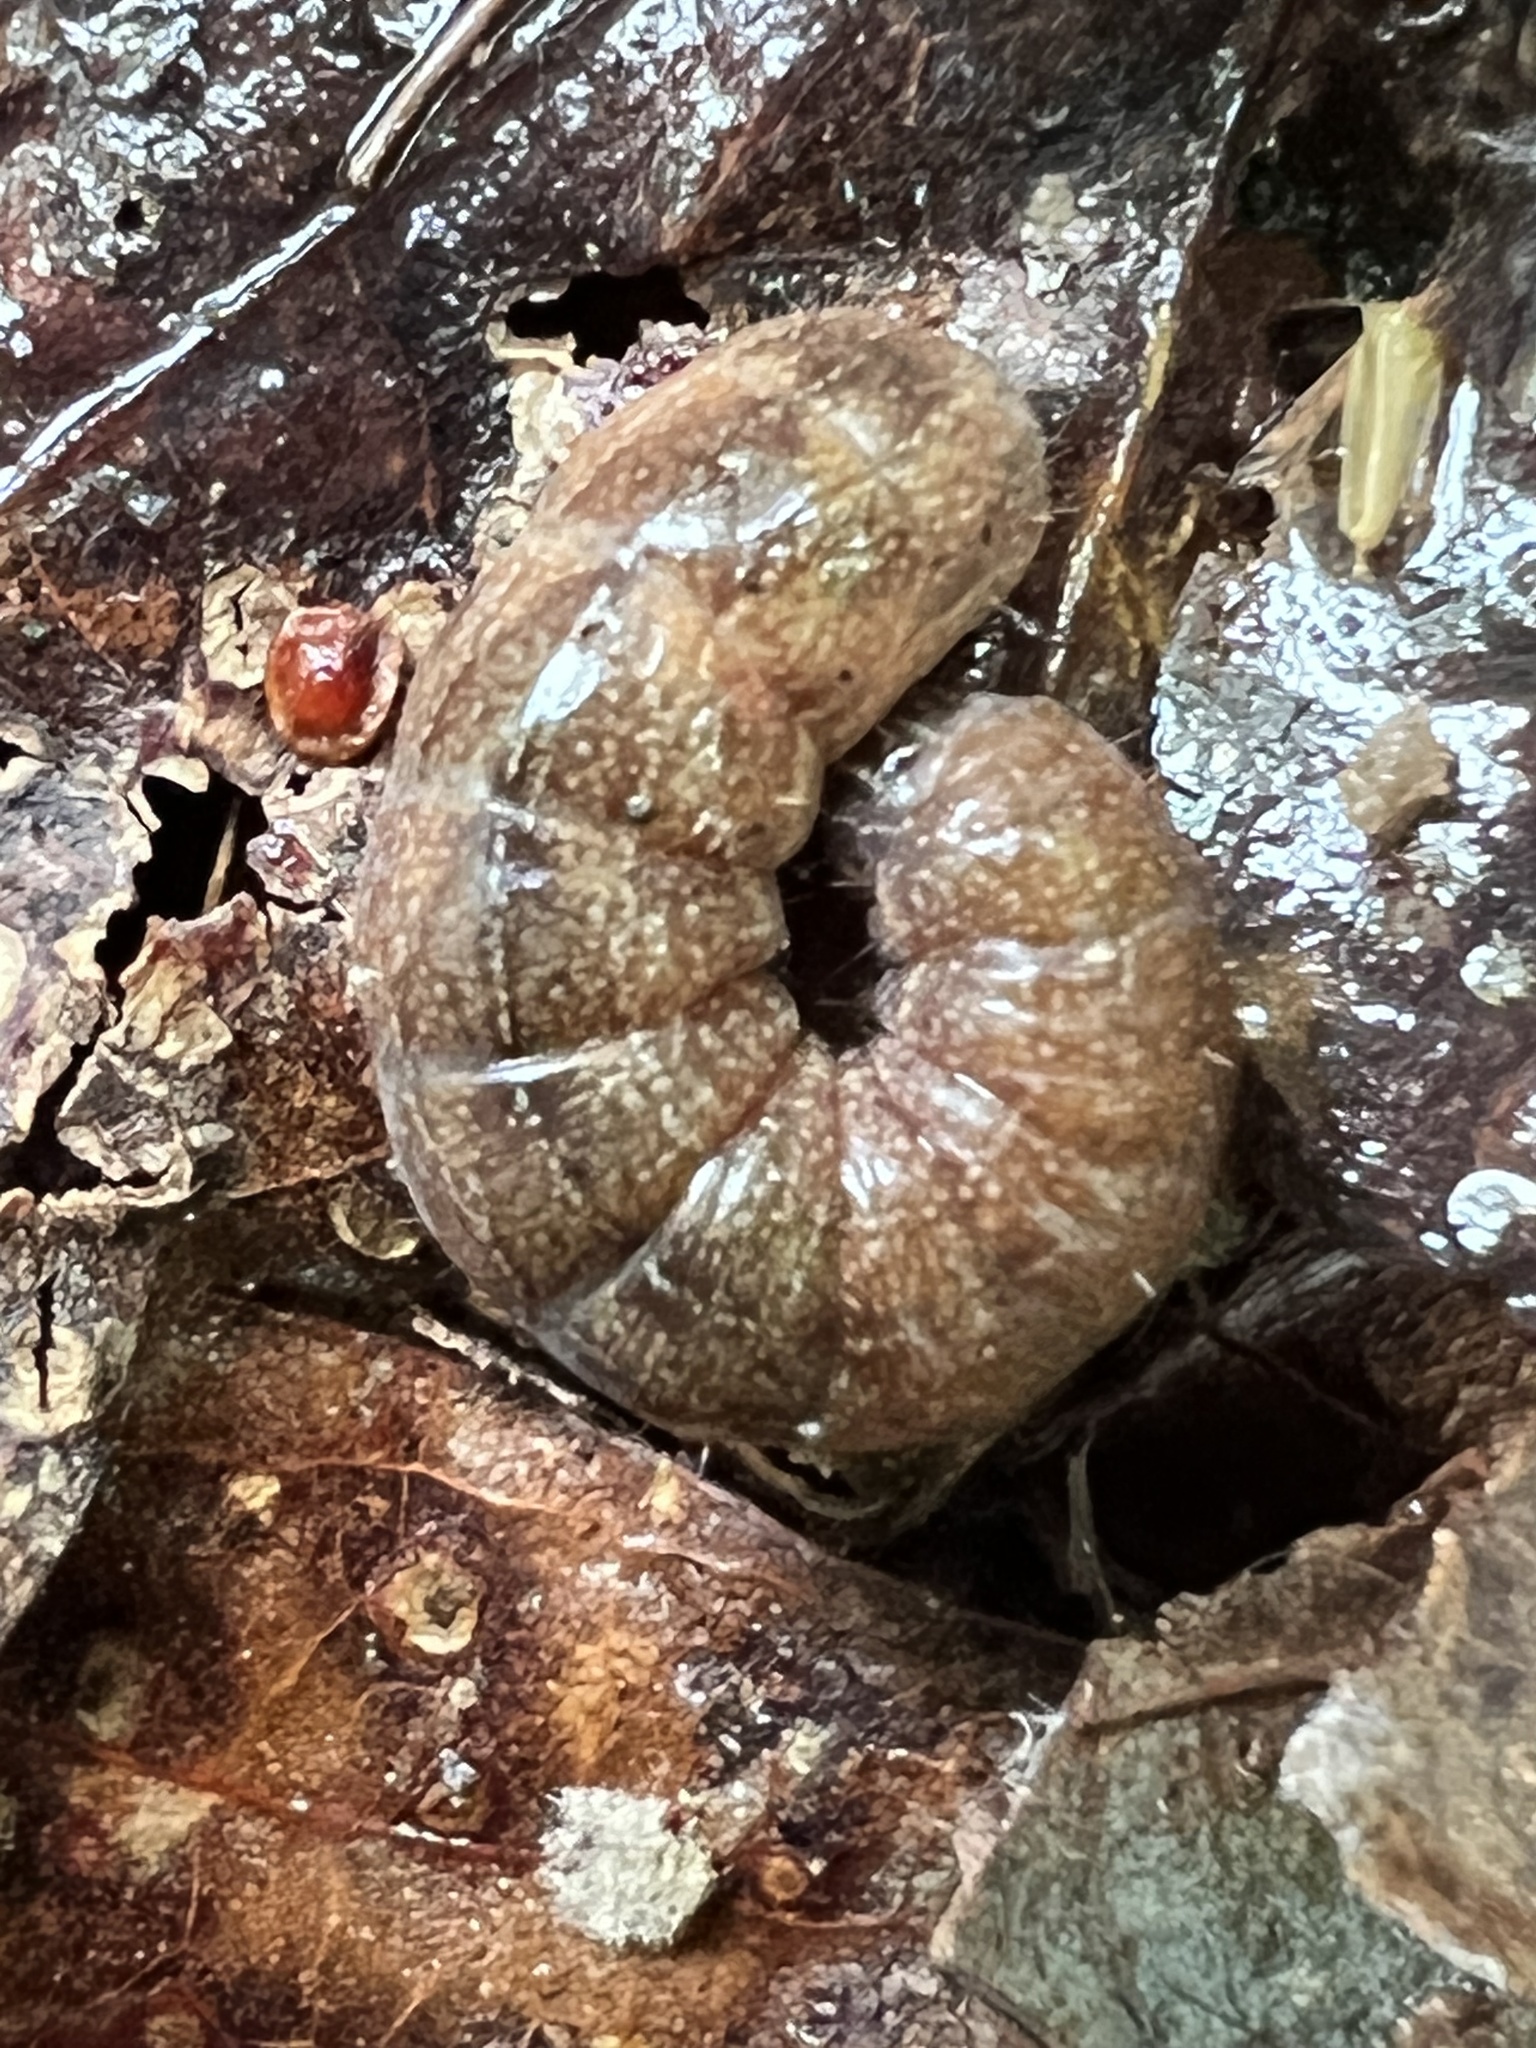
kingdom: Animalia
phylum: Arthropoda
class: Insecta
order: Lepidoptera
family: Noctuidae
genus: Agrochola
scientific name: Agrochola bicolorago
